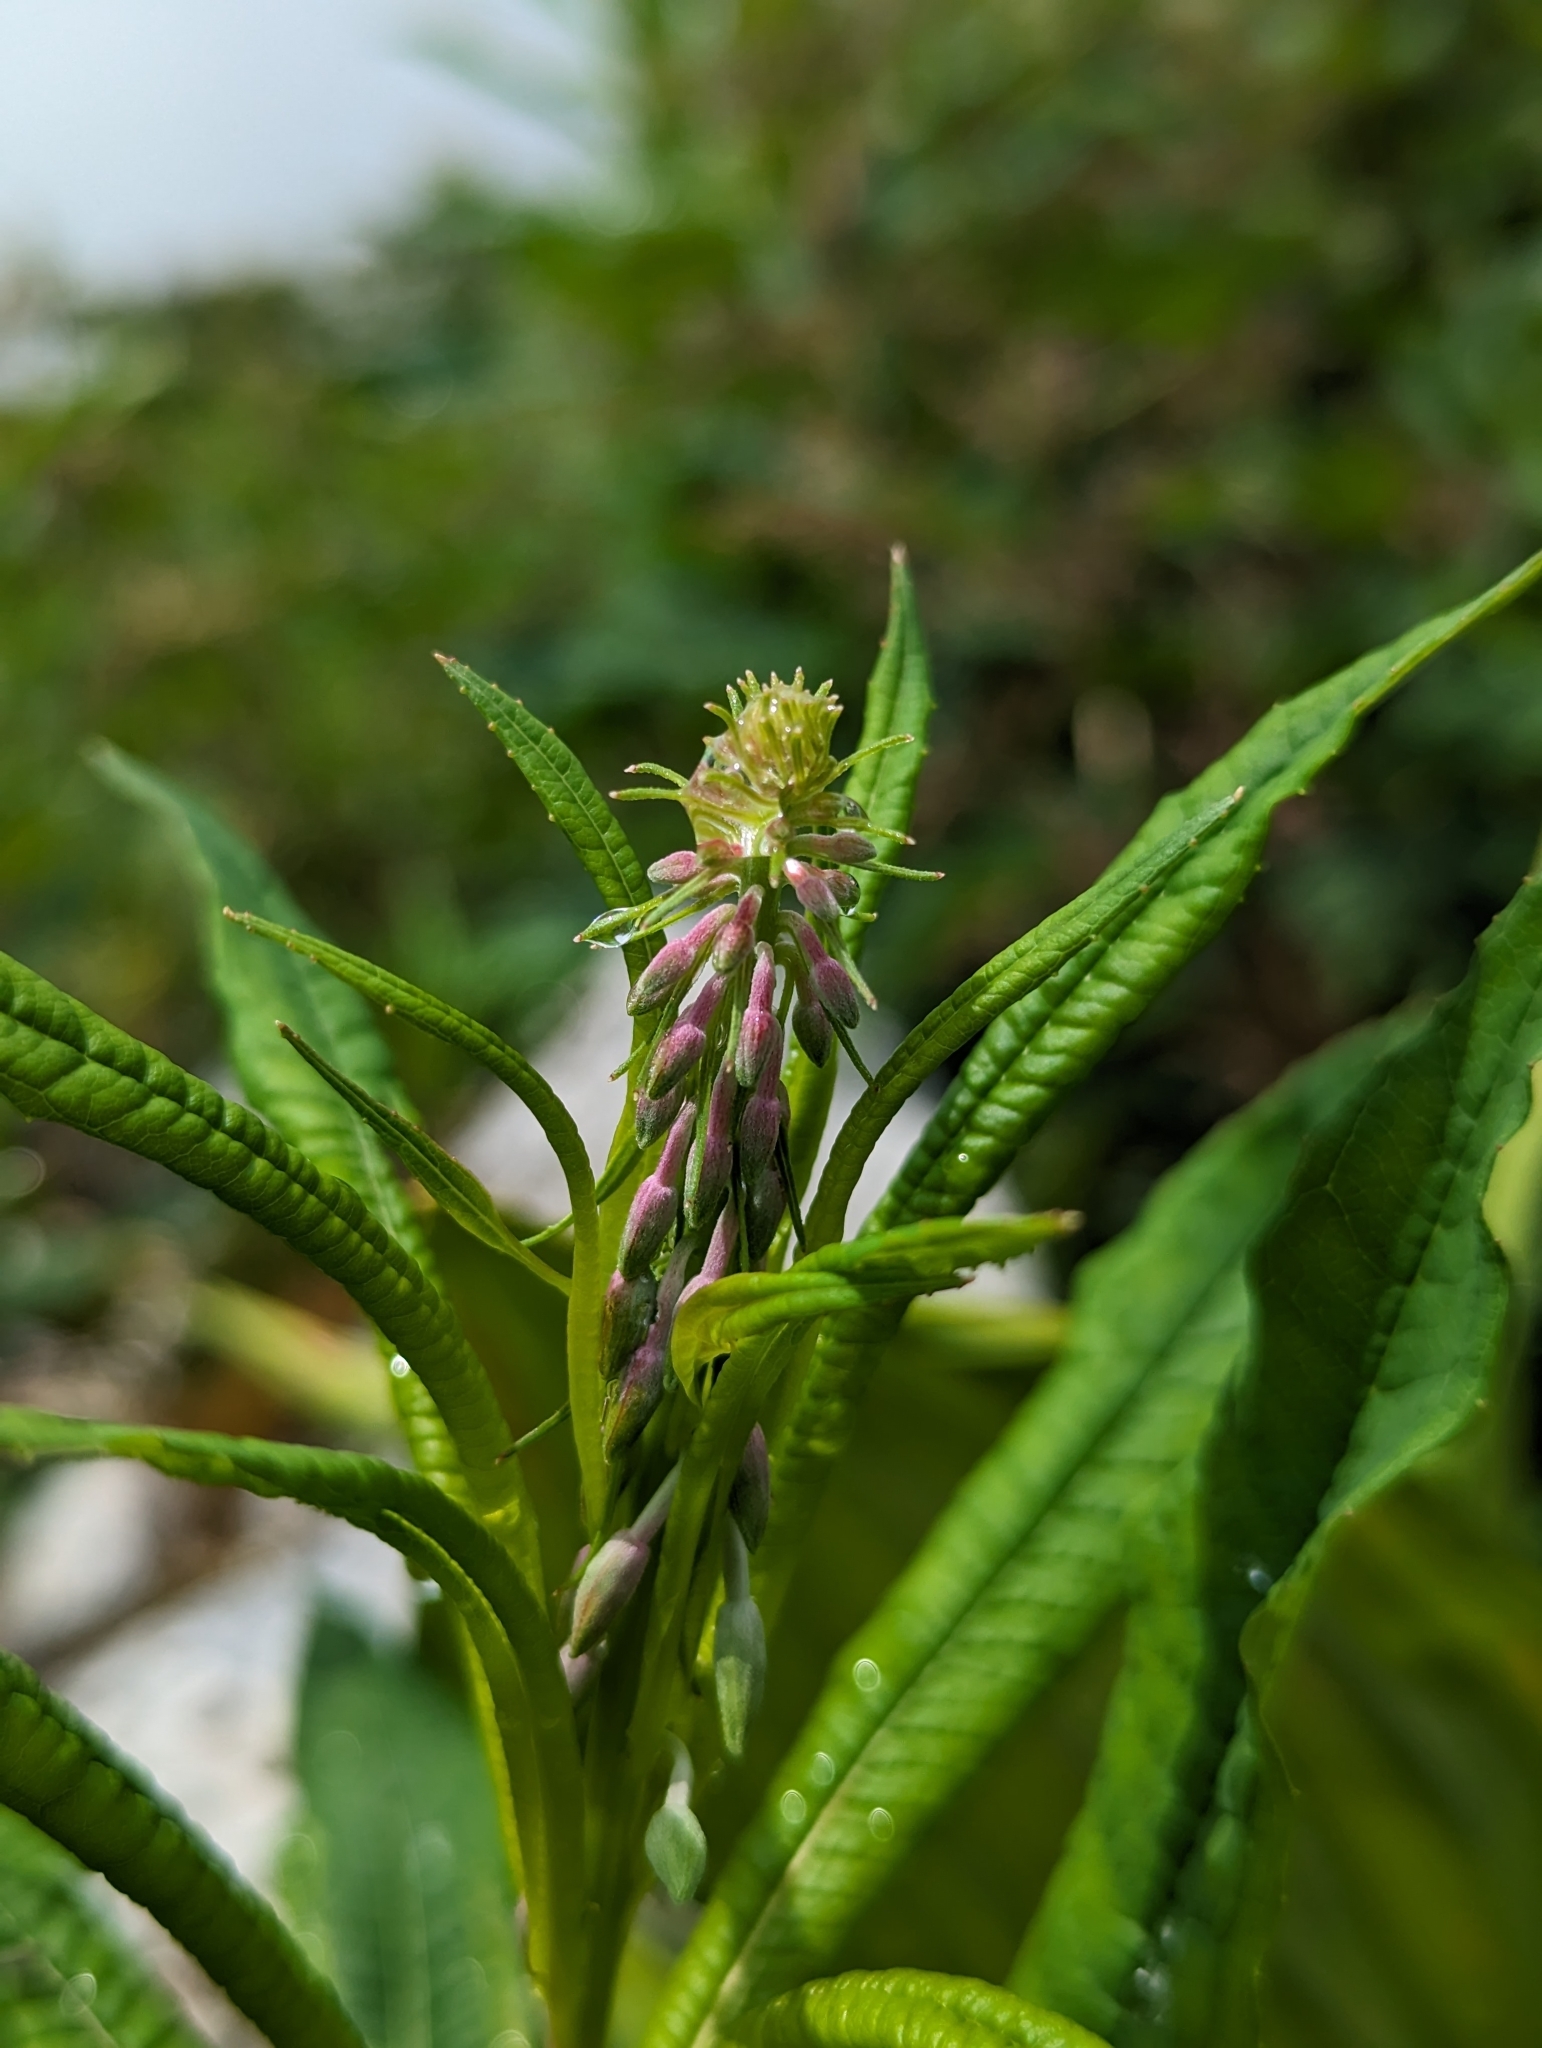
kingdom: Plantae
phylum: Tracheophyta
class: Magnoliopsida
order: Myrtales
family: Onagraceae
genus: Chamaenerion
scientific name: Chamaenerion angustifolium
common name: Fireweed
